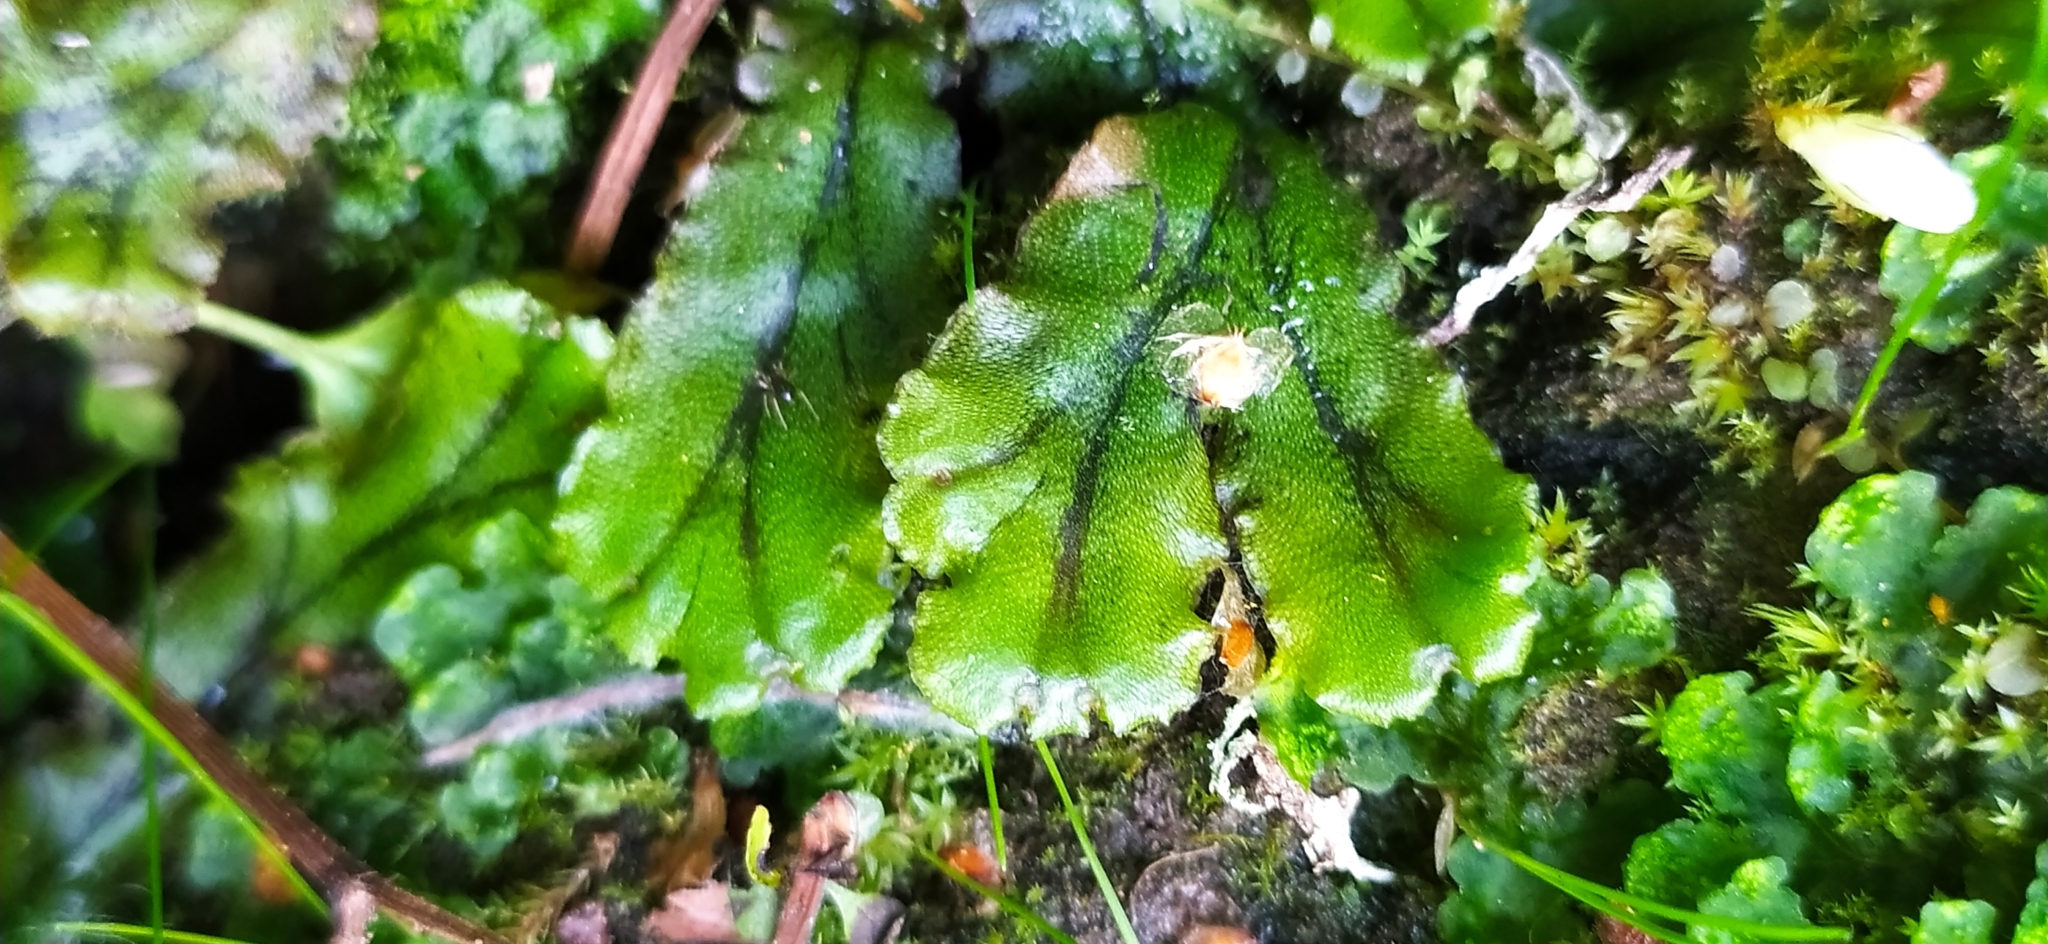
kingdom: Plantae
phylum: Marchantiophyta
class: Marchantiopsida
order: Marchantiales
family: Marchantiaceae
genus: Marchantia
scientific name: Marchantia polymorpha
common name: Common liverwort
